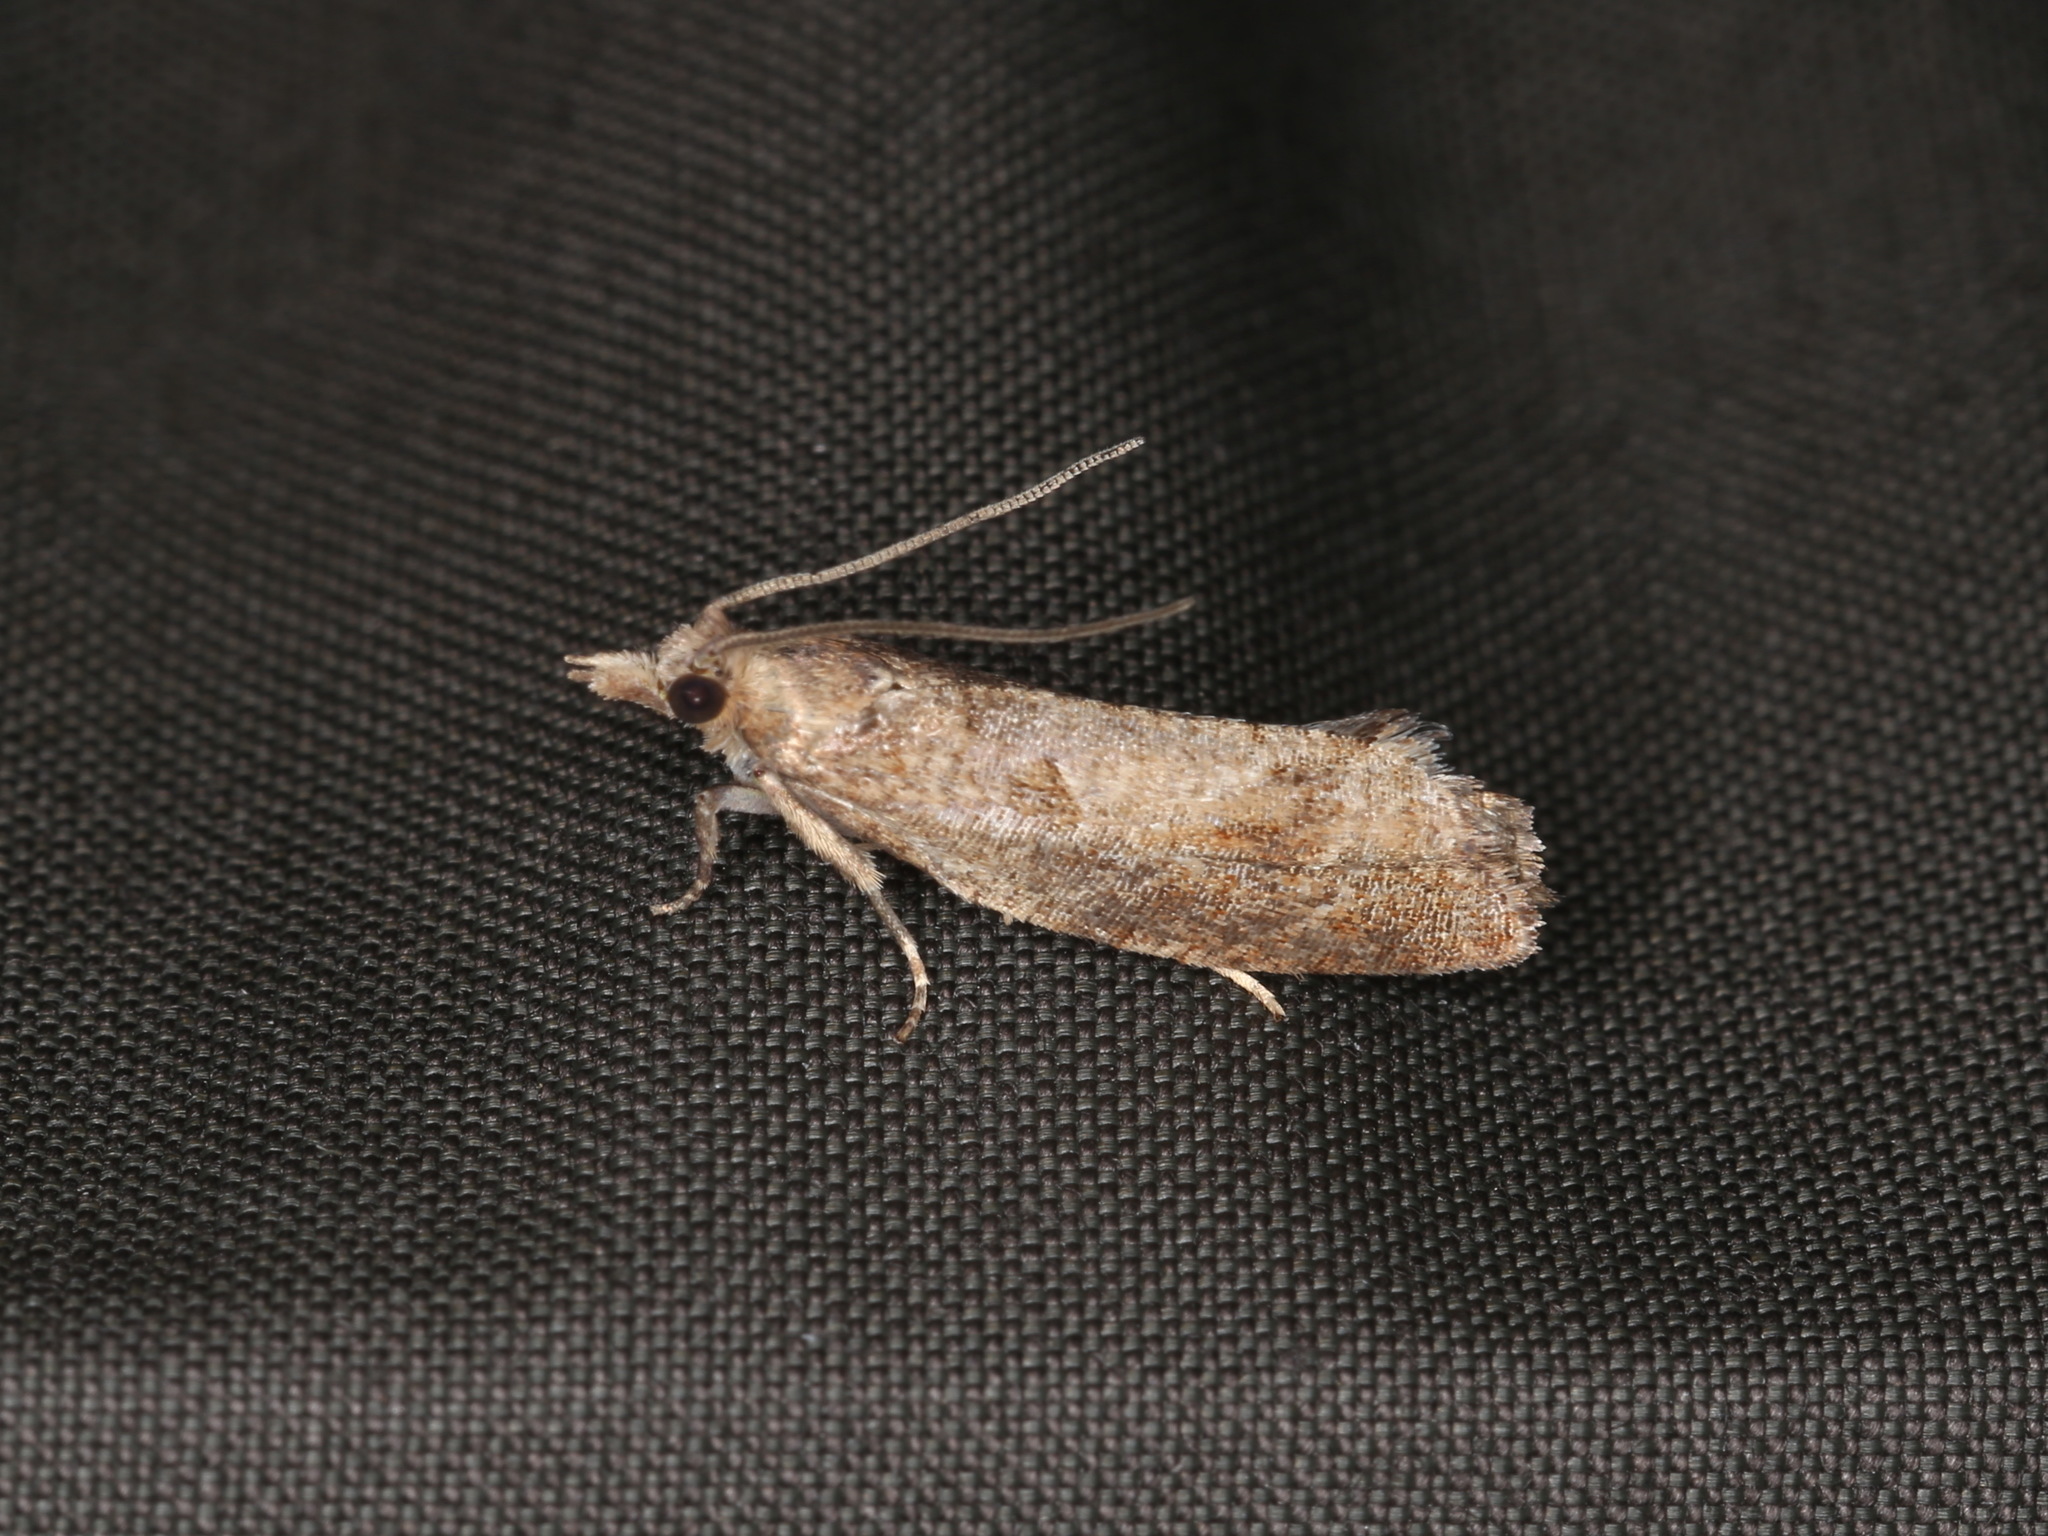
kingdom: Animalia
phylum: Arthropoda
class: Insecta
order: Lepidoptera
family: Tortricidae
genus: Epinotia
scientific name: Epinotia solandriana
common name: Variable bell
